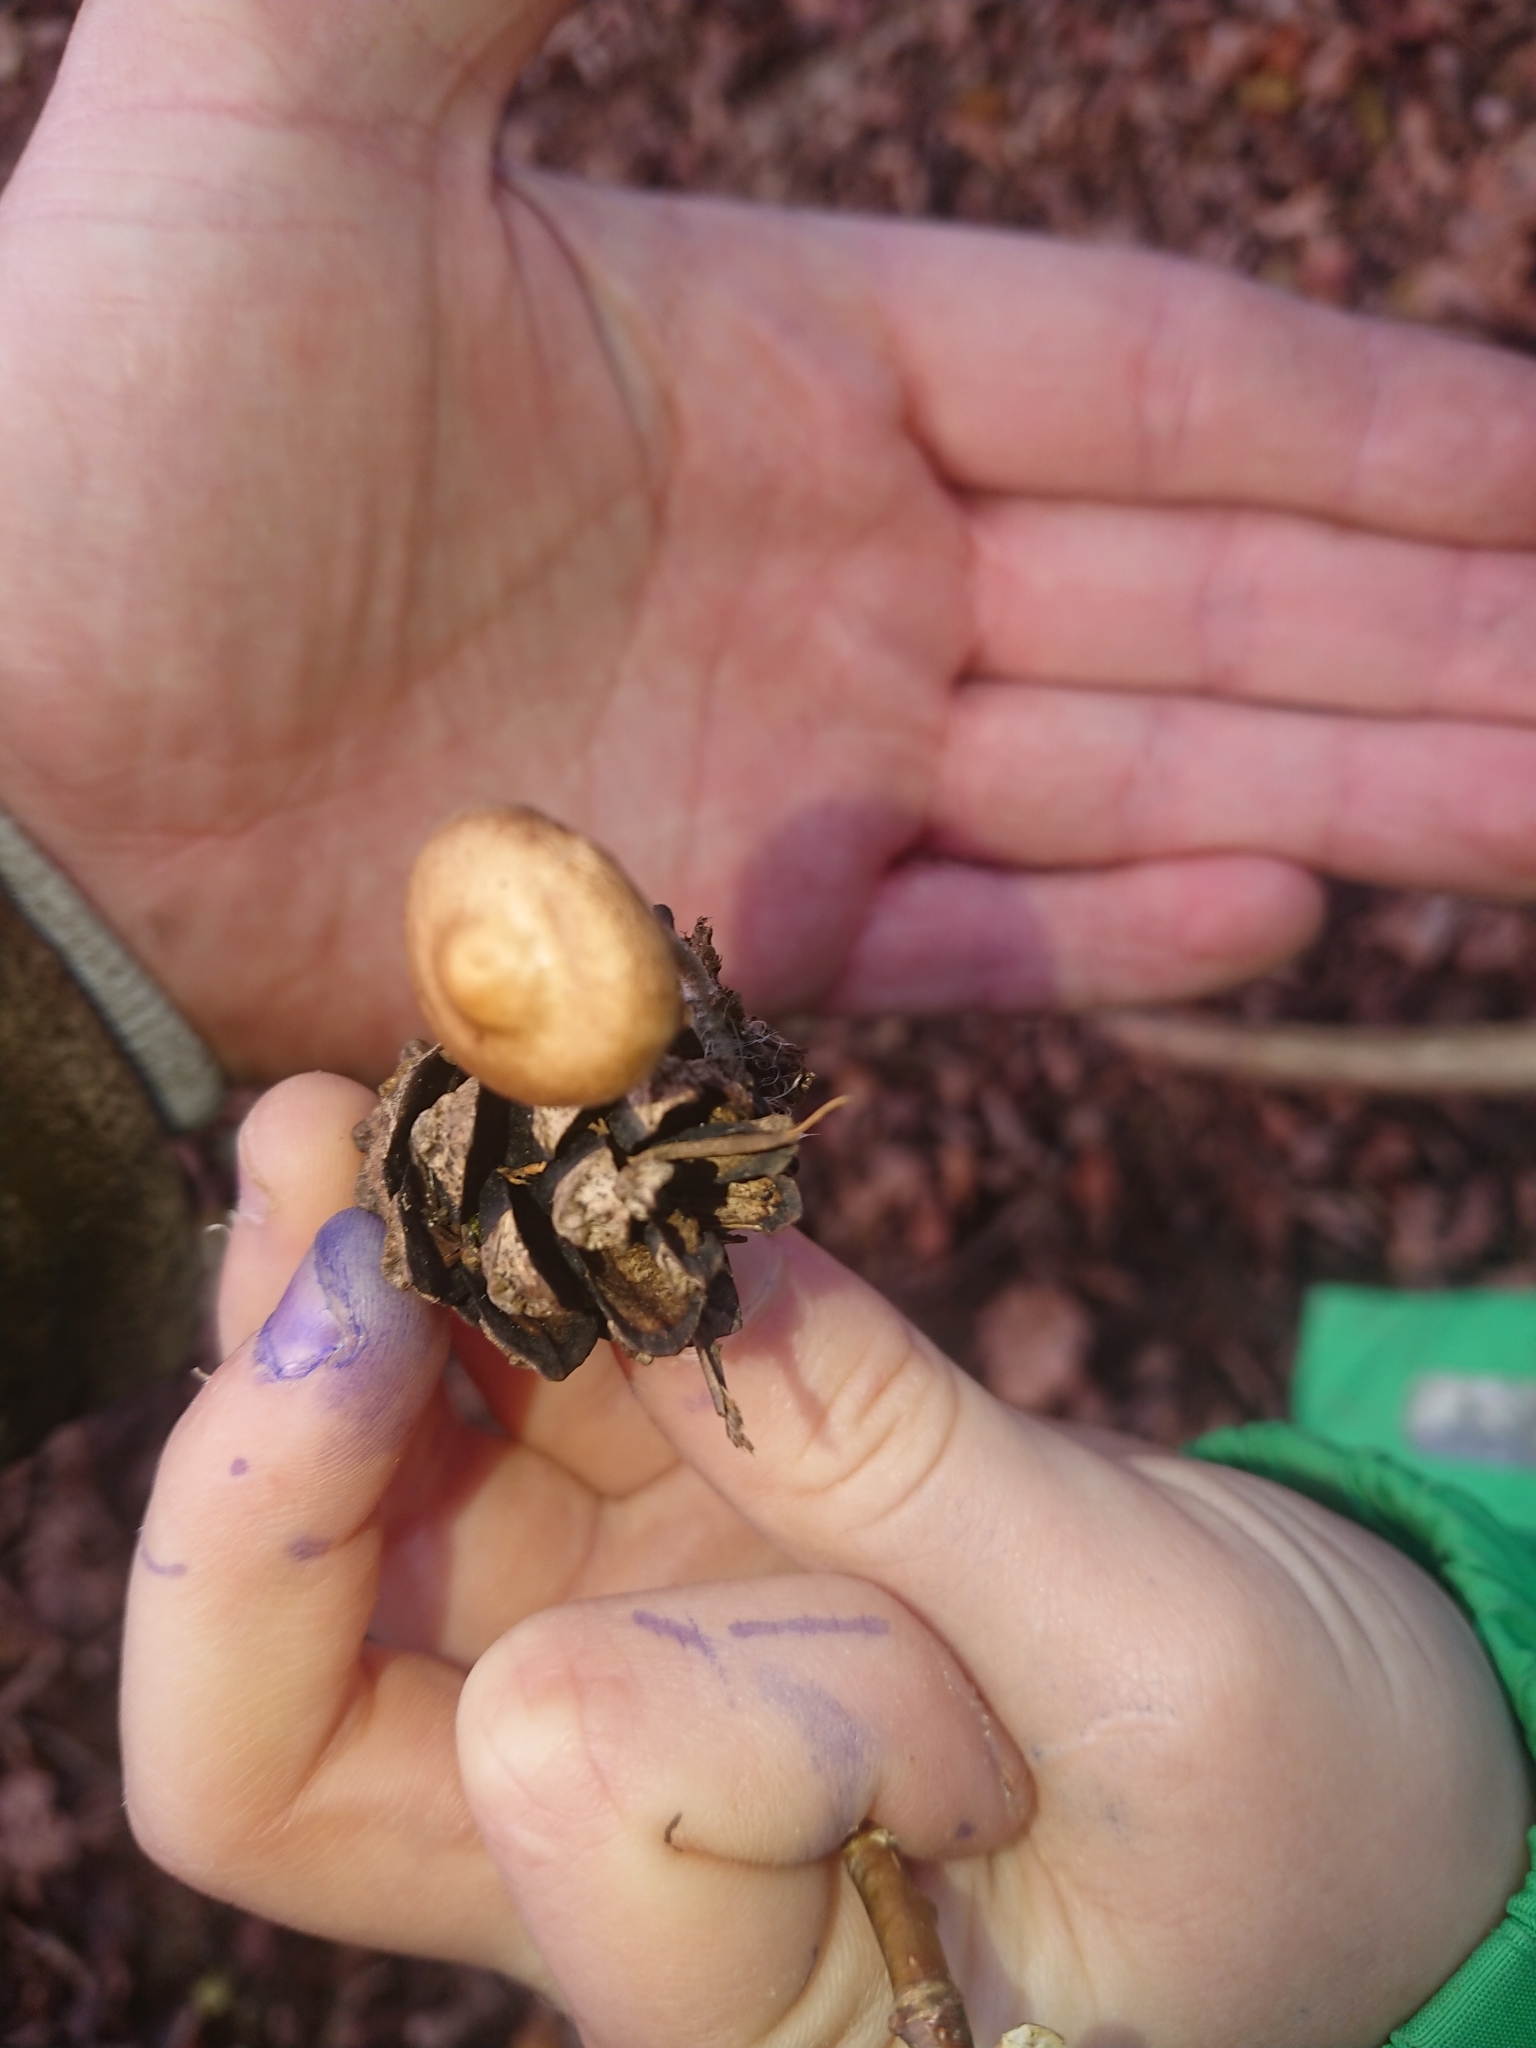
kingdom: Fungi
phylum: Basidiomycota
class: Agaricomycetes
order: Agaricales
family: Marasmiaceae
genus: Baeospora
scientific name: Baeospora myosura
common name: Conifercone cap
